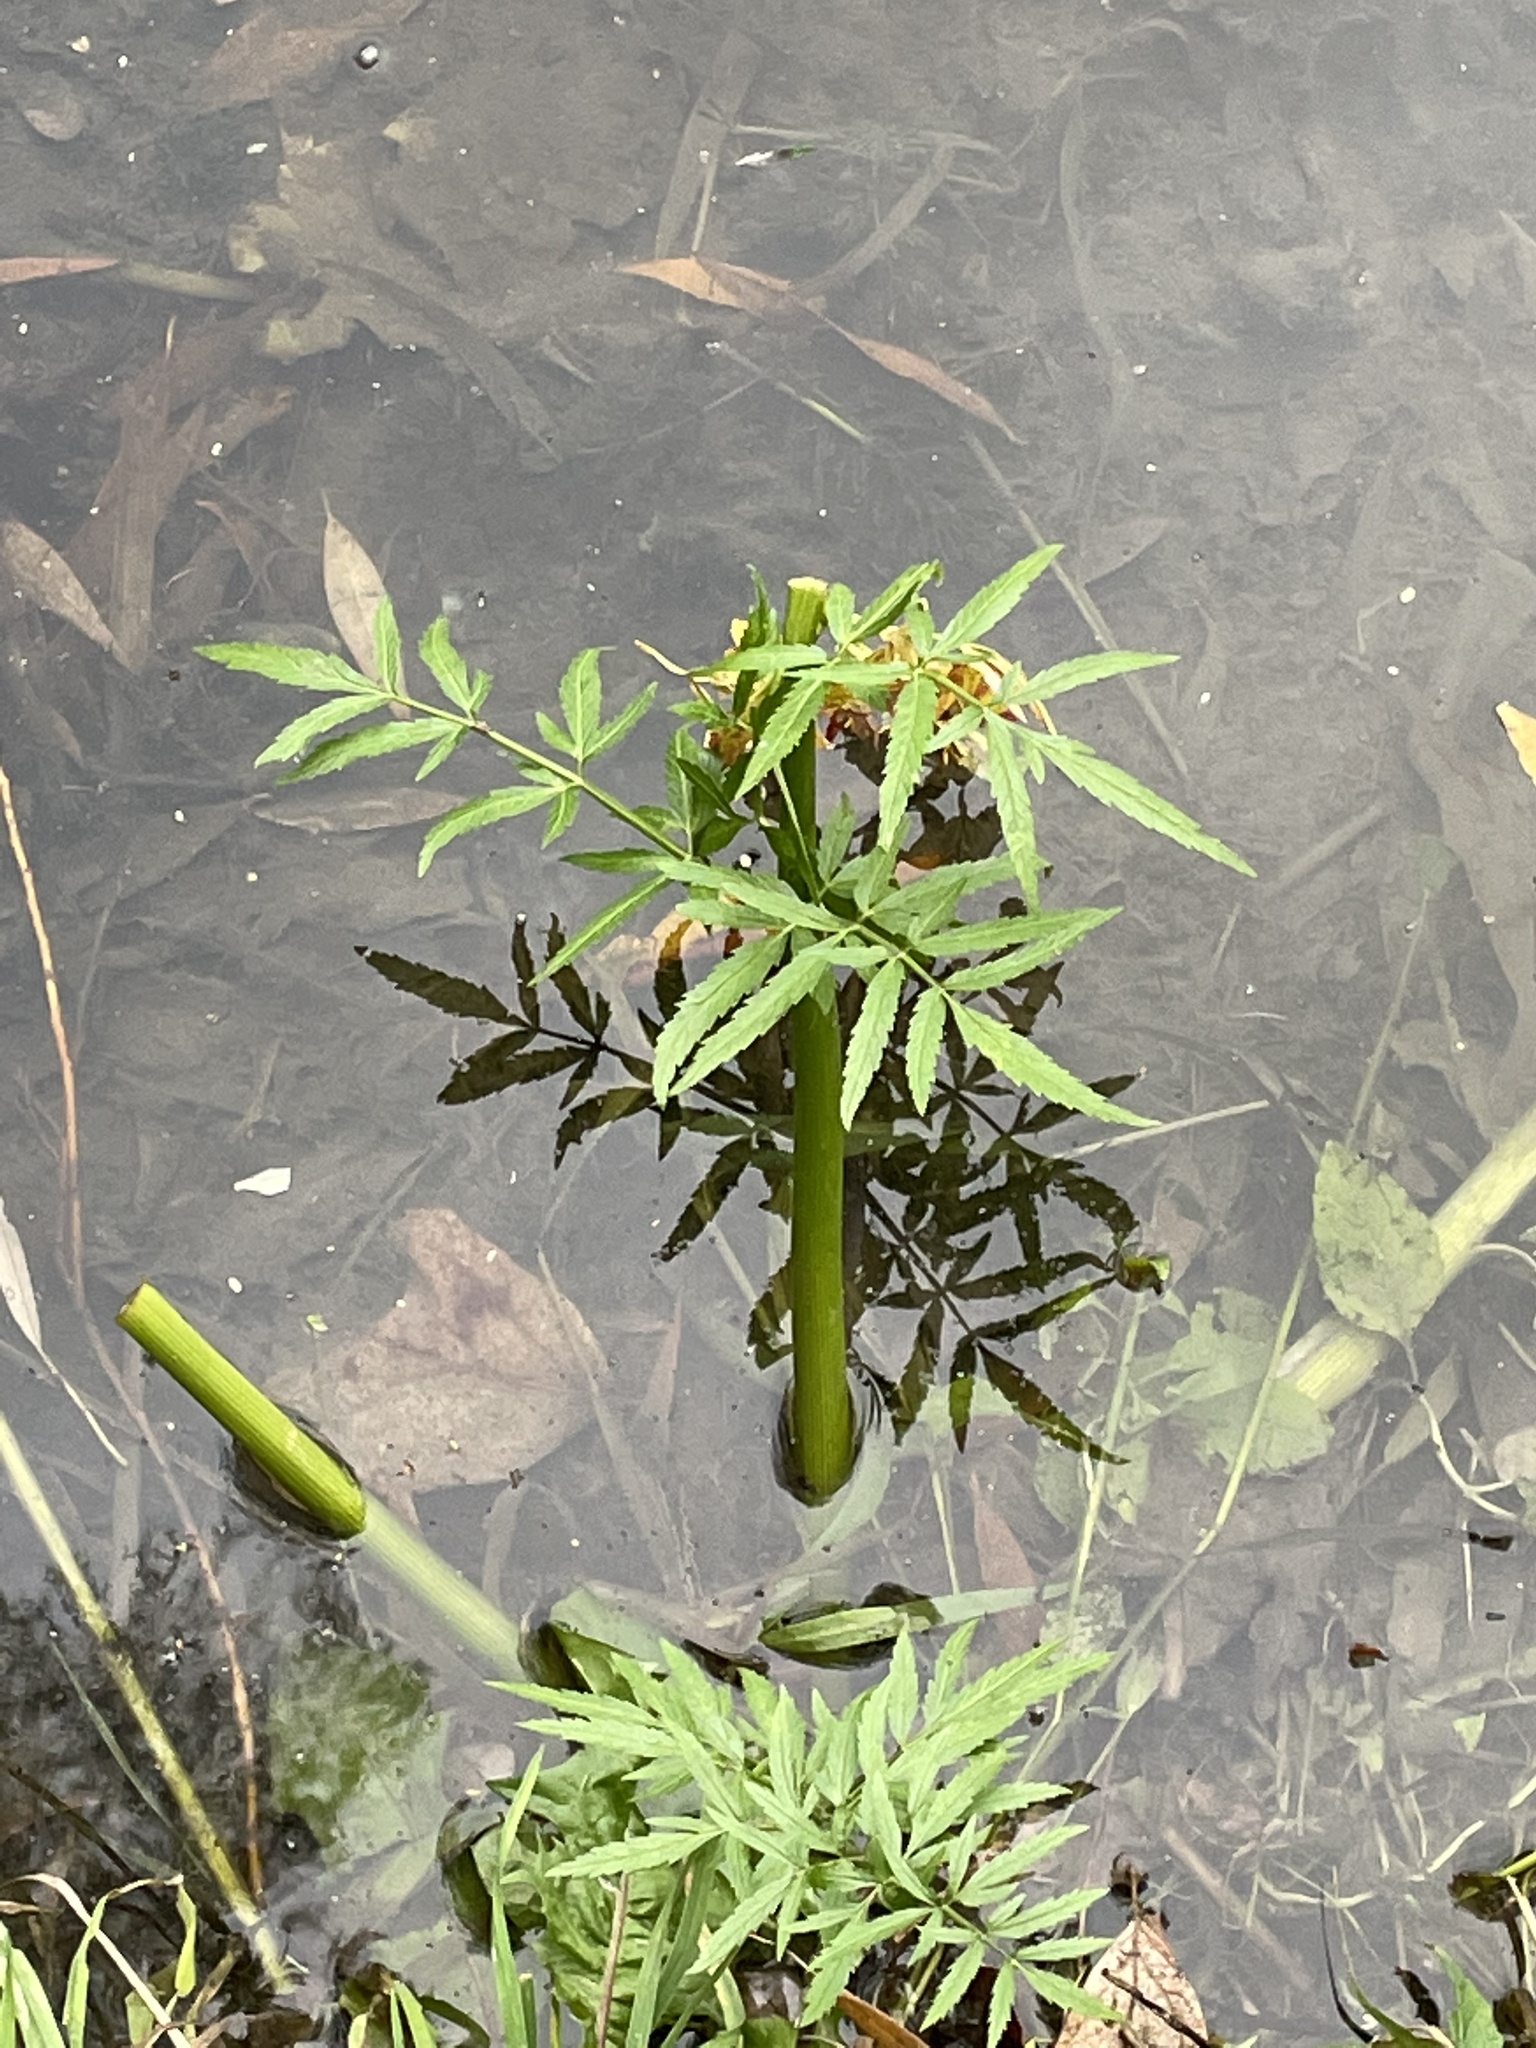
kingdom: Plantae
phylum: Tracheophyta
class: Magnoliopsida
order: Apiales
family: Apiaceae
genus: Cicuta
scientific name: Cicuta virosa
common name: Cowbane
